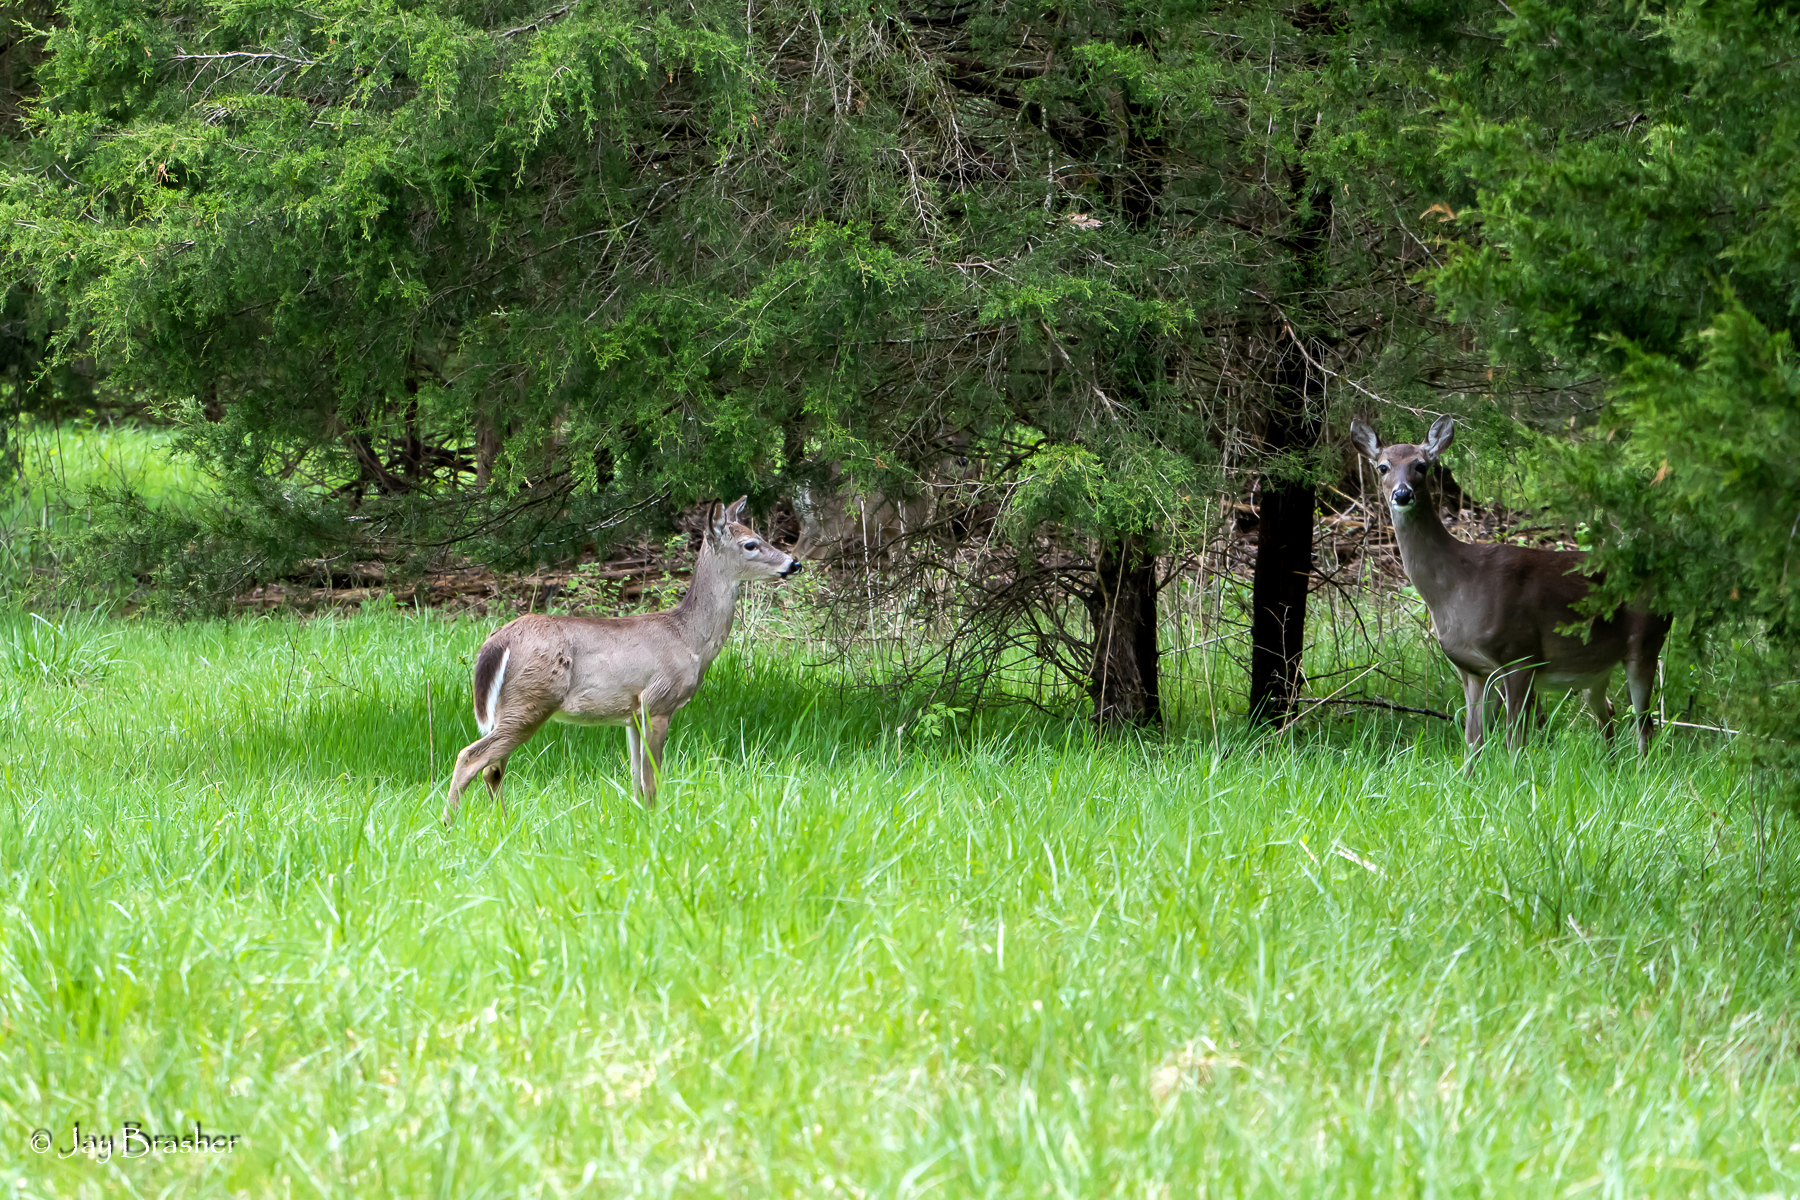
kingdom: Animalia
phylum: Chordata
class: Mammalia
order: Artiodactyla
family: Cervidae
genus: Odocoileus
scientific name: Odocoileus virginianus
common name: White-tailed deer
